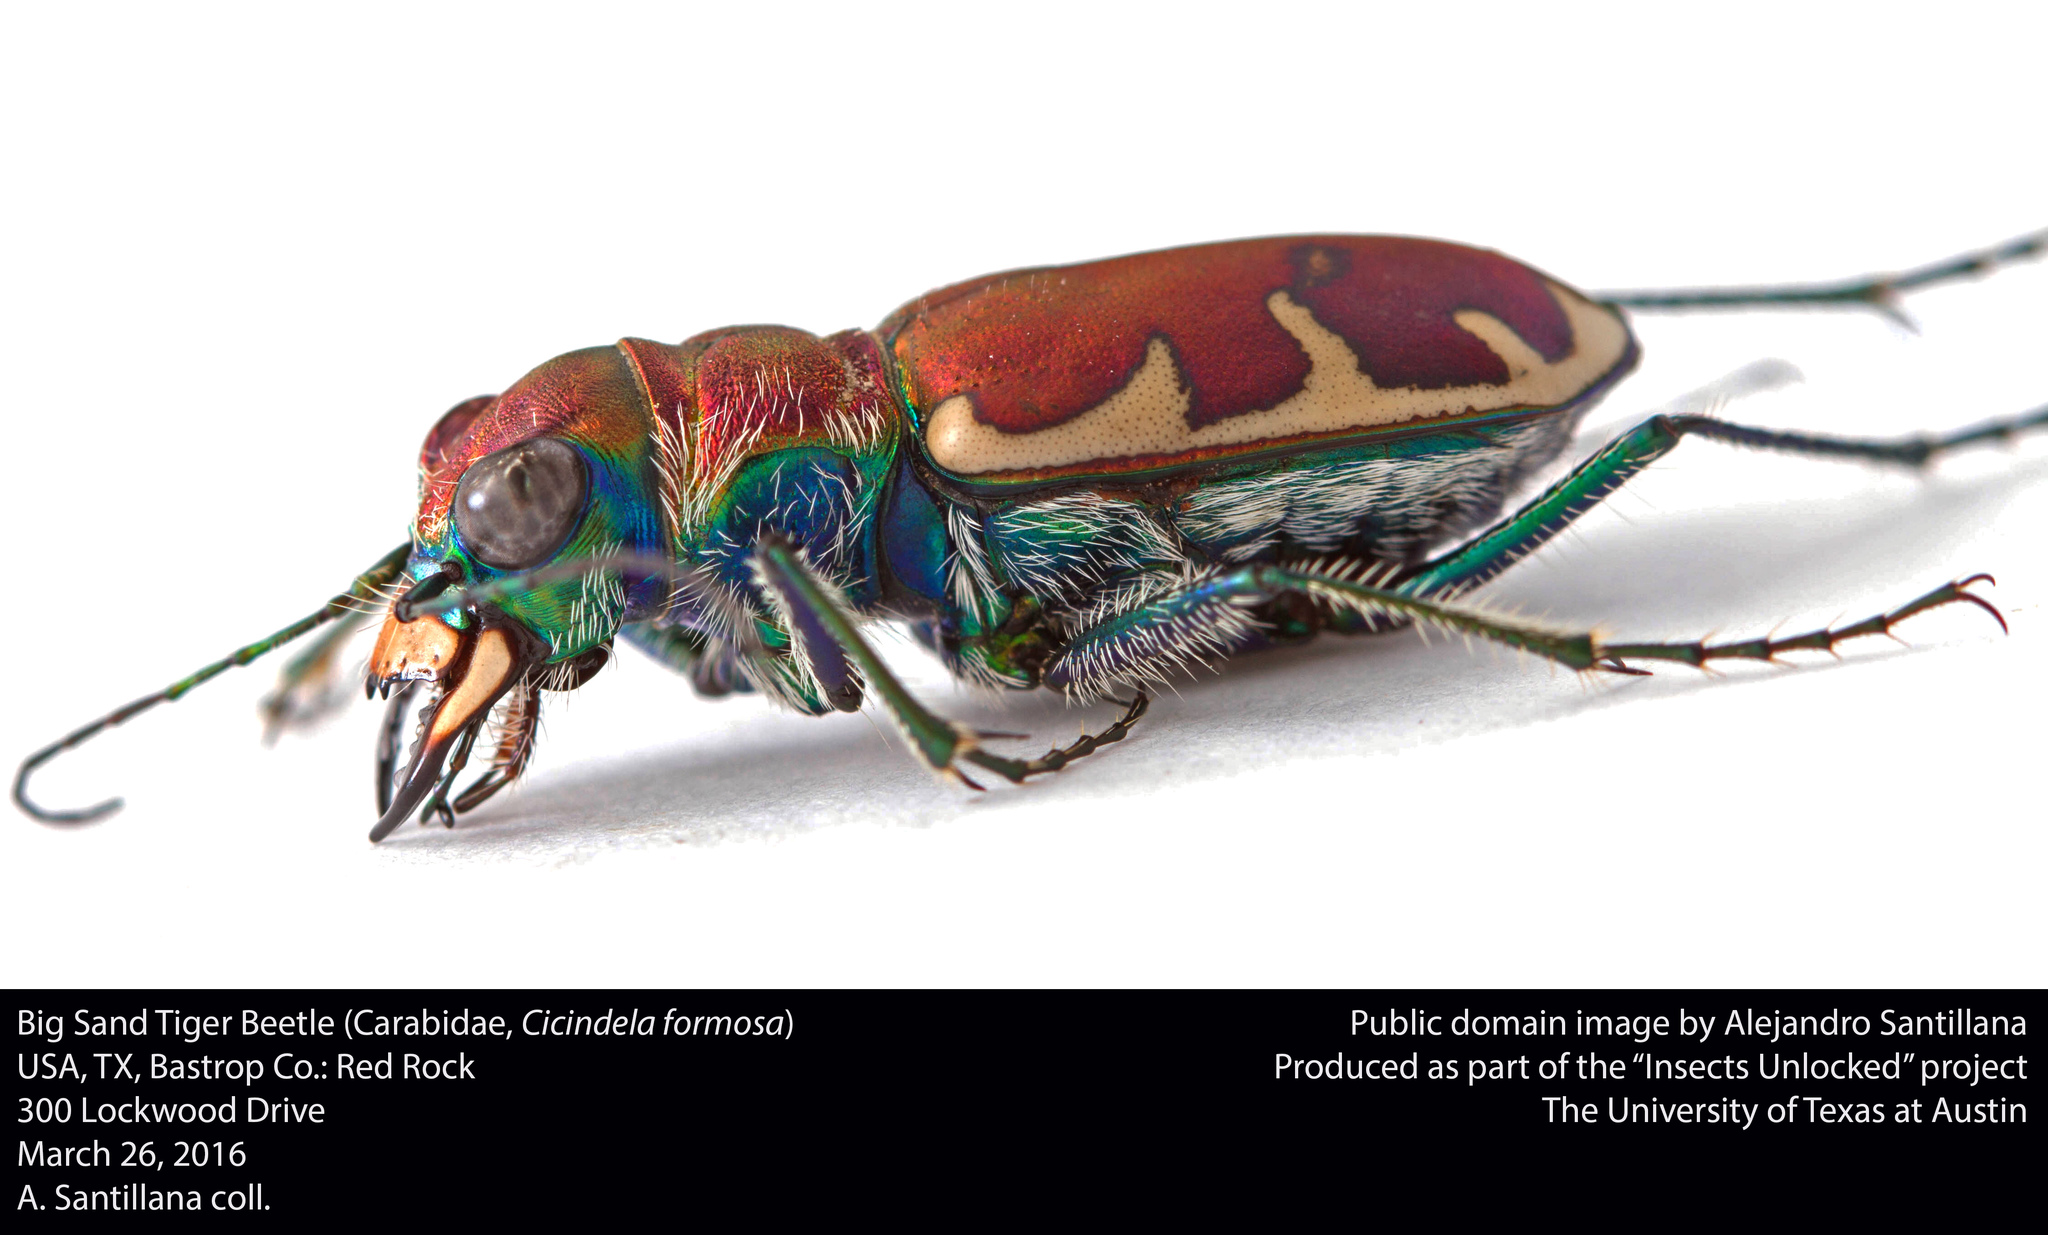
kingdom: Animalia
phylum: Arthropoda
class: Insecta
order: Coleoptera
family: Carabidae
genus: Cicindela
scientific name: Cicindela formosa
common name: Big sand tiger beetle
